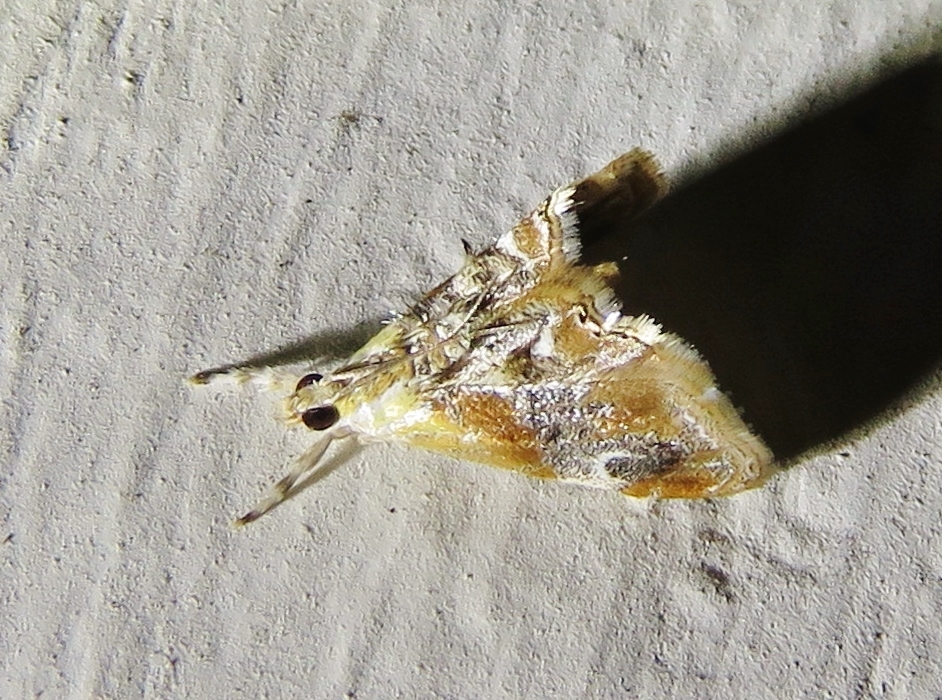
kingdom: Animalia
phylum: Arthropoda
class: Insecta
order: Lepidoptera
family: Crambidae
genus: Dicymolomia
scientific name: Dicymolomia julianalis
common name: Julia's dicymolomia moth
